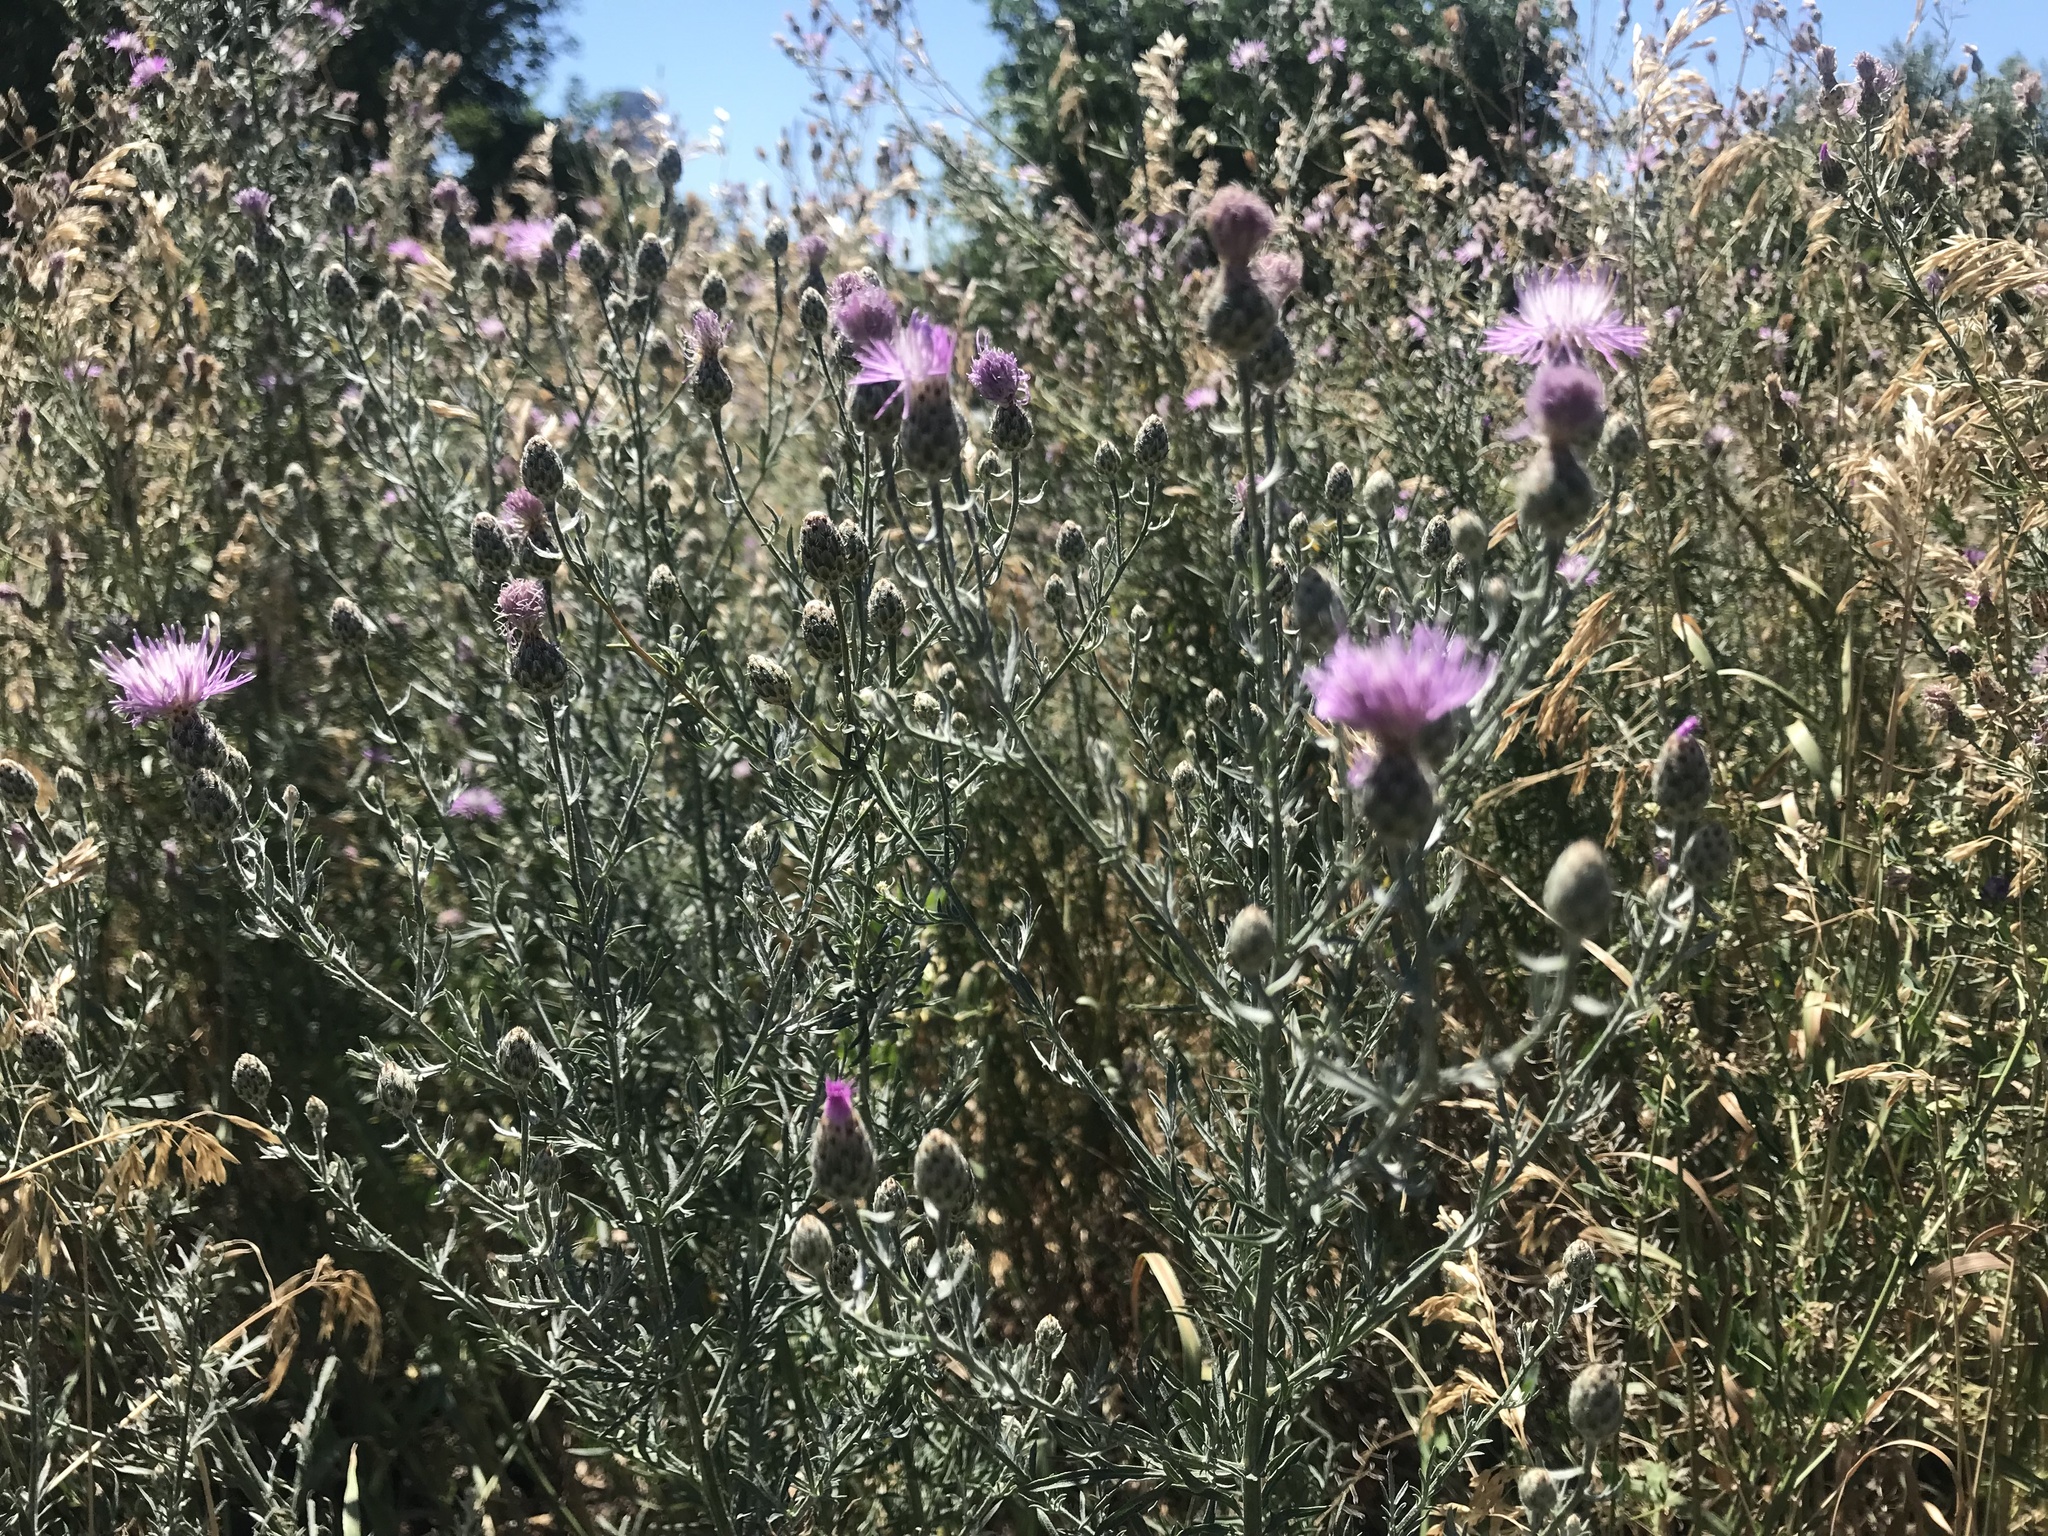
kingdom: Plantae
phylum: Tracheophyta
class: Magnoliopsida
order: Asterales
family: Asteraceae
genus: Centaurea
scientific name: Centaurea stoebe
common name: Spotted knapweed
